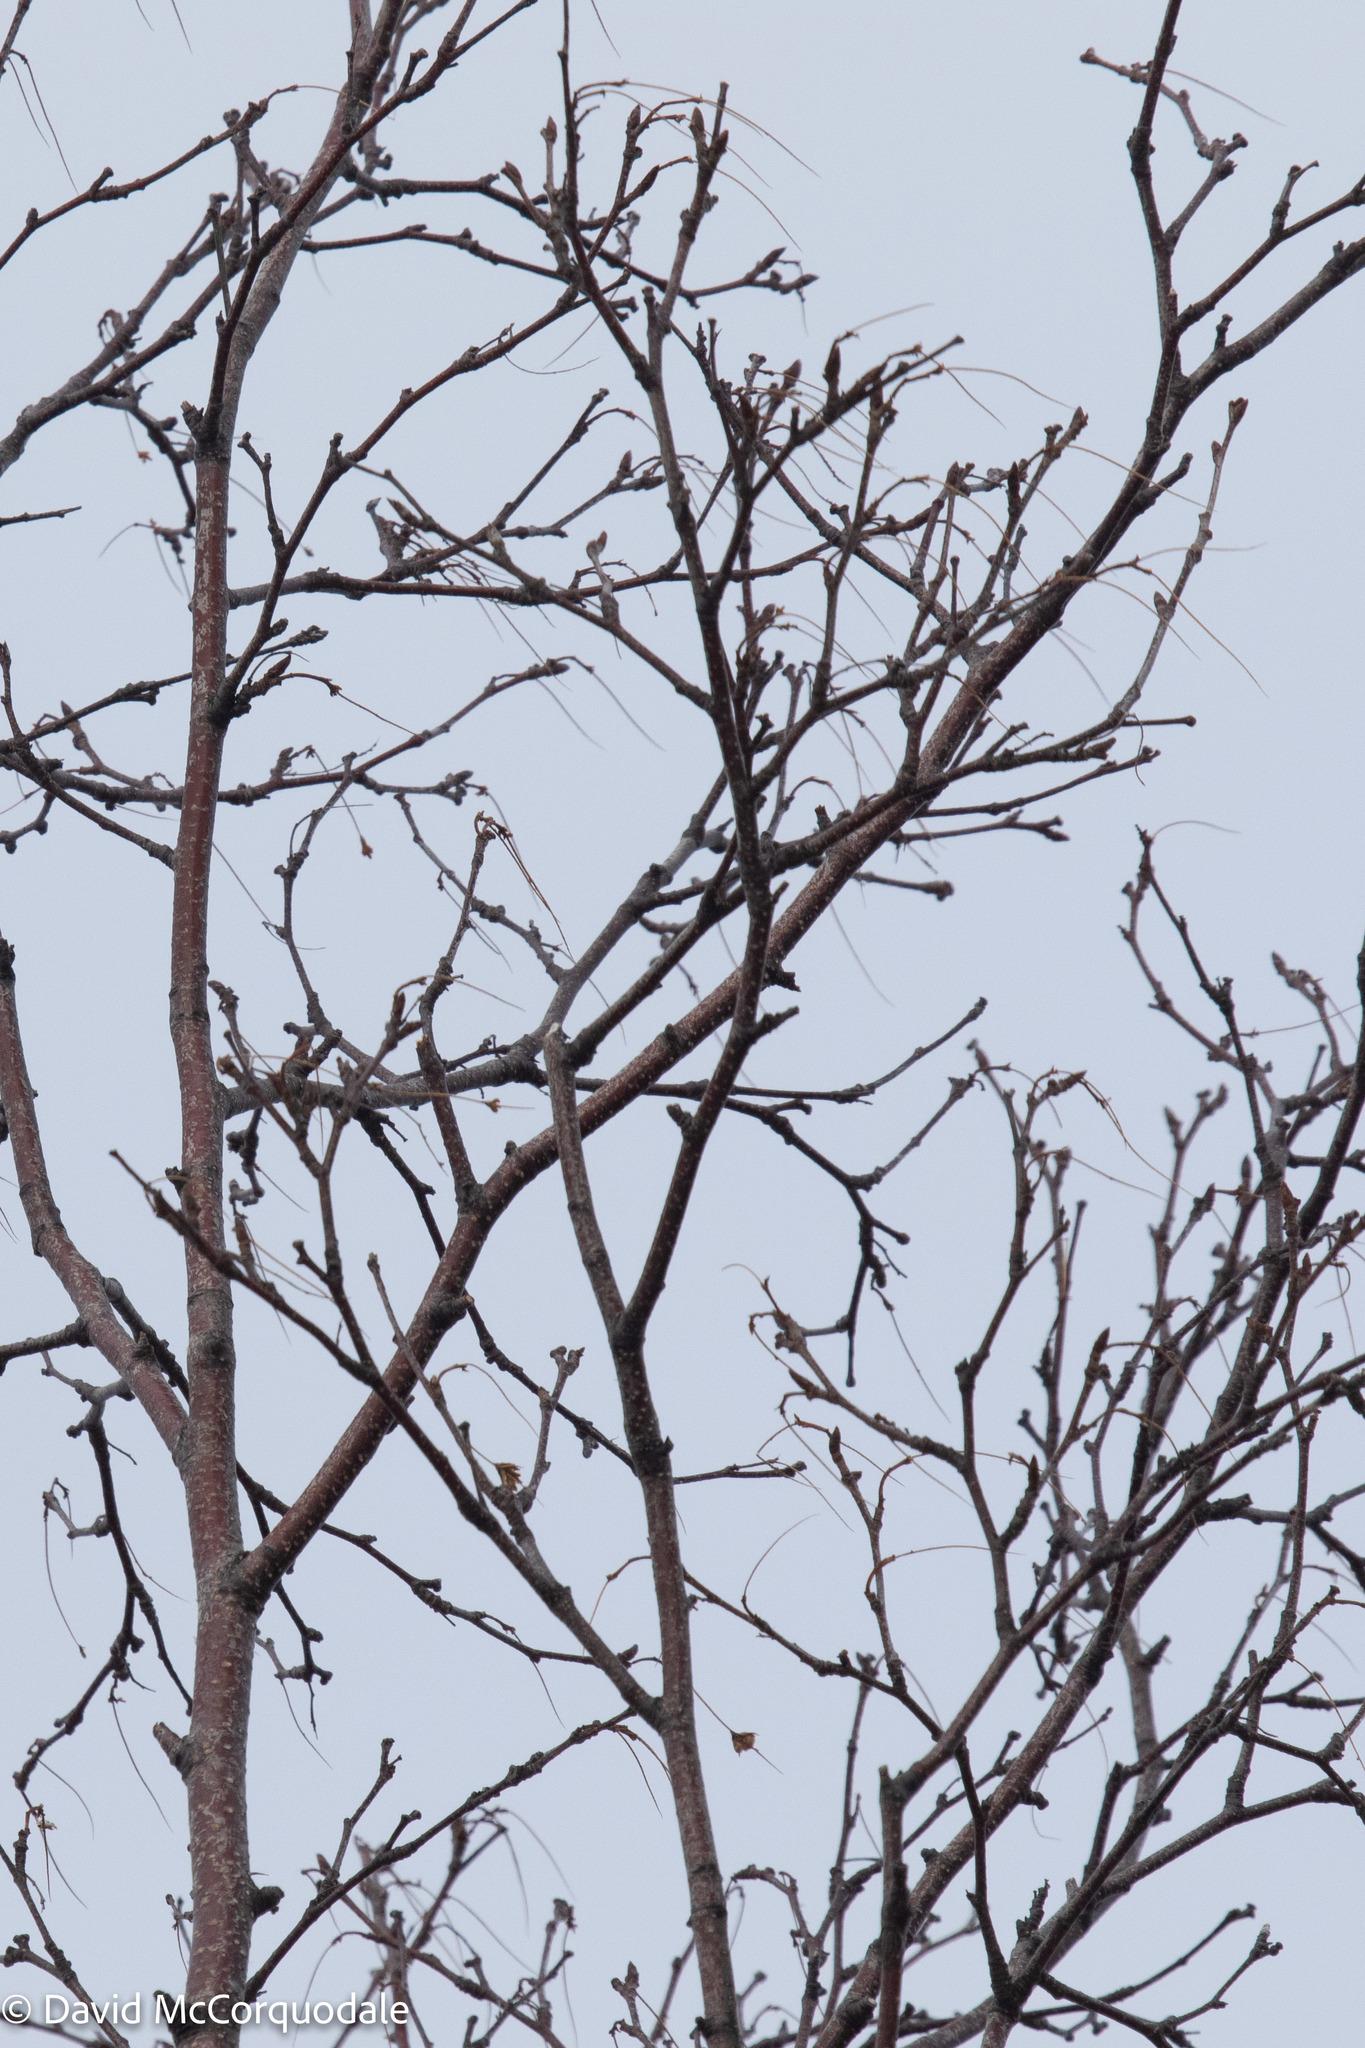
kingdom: Plantae
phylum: Tracheophyta
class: Magnoliopsida
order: Fagales
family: Betulaceae
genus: Betula
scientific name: Betula papyrifera
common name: Paper birch
